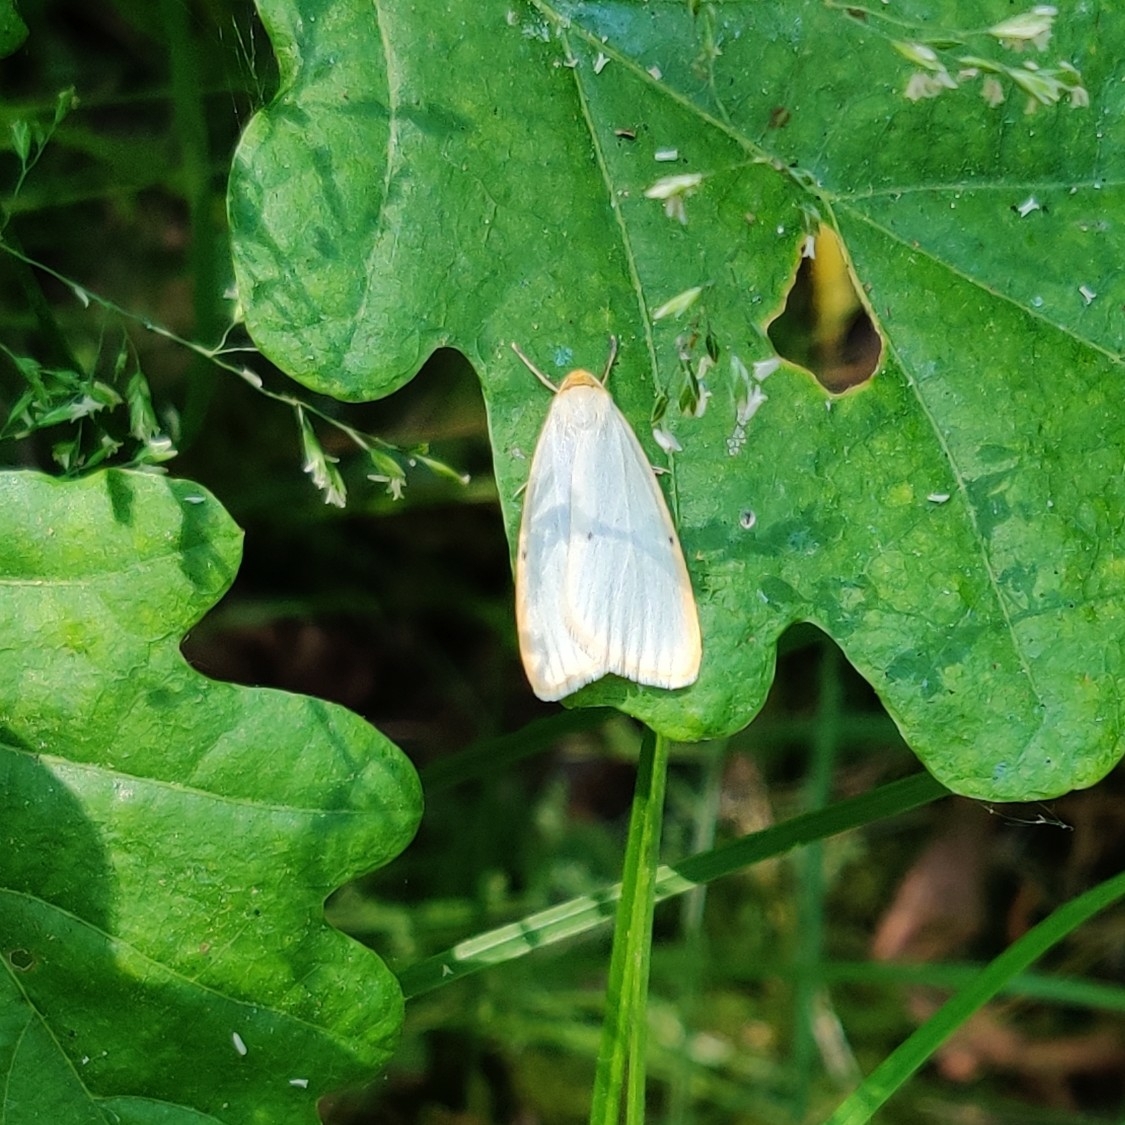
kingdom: Animalia
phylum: Arthropoda
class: Insecta
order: Lepidoptera
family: Erebidae
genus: Cybosia
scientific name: Cybosia mesomella
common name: Four-dotted footman
